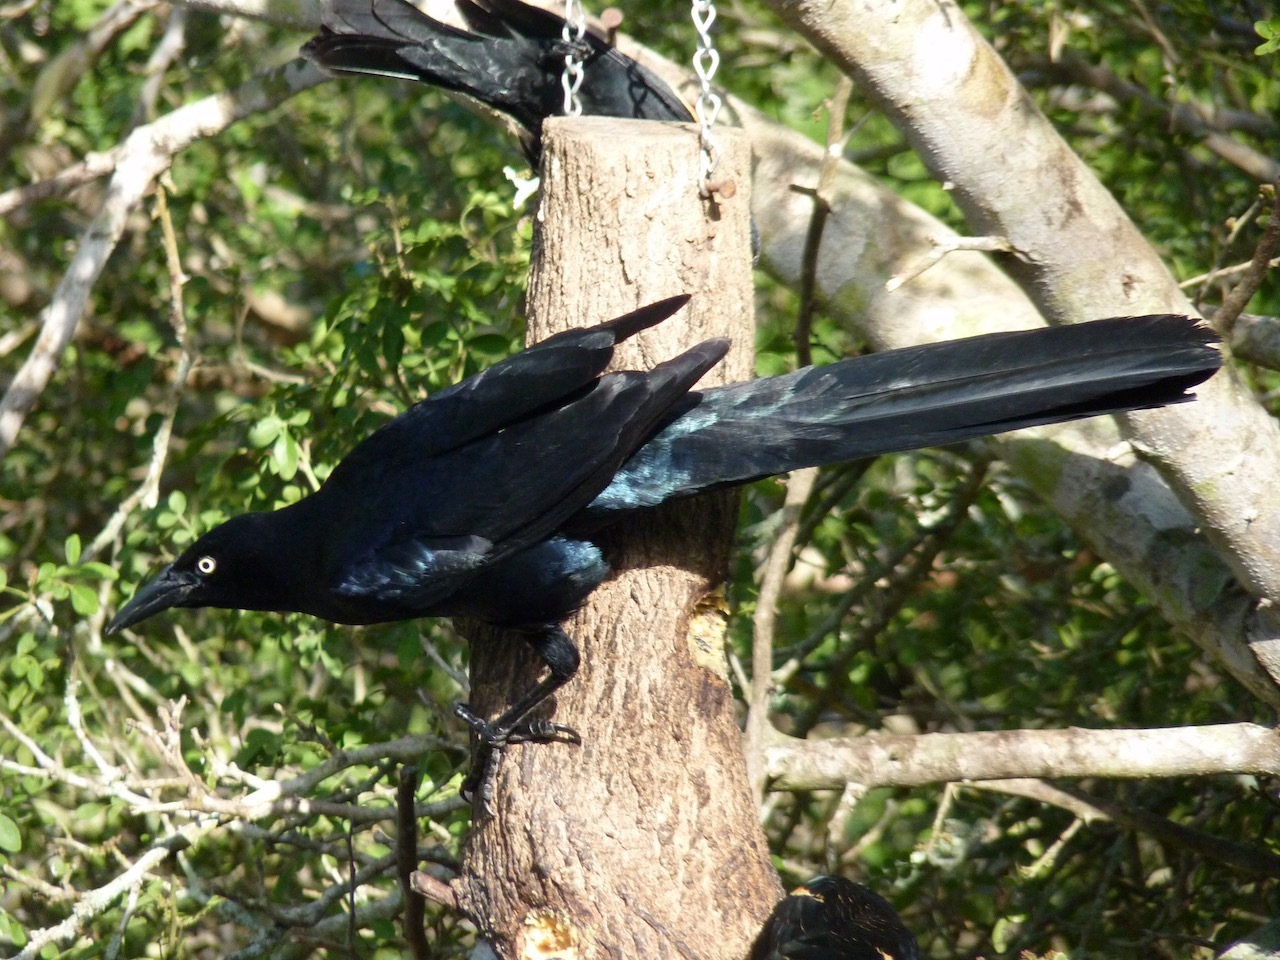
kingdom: Animalia
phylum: Chordata
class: Aves
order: Passeriformes
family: Icteridae
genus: Quiscalus
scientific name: Quiscalus mexicanus
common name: Great-tailed grackle
